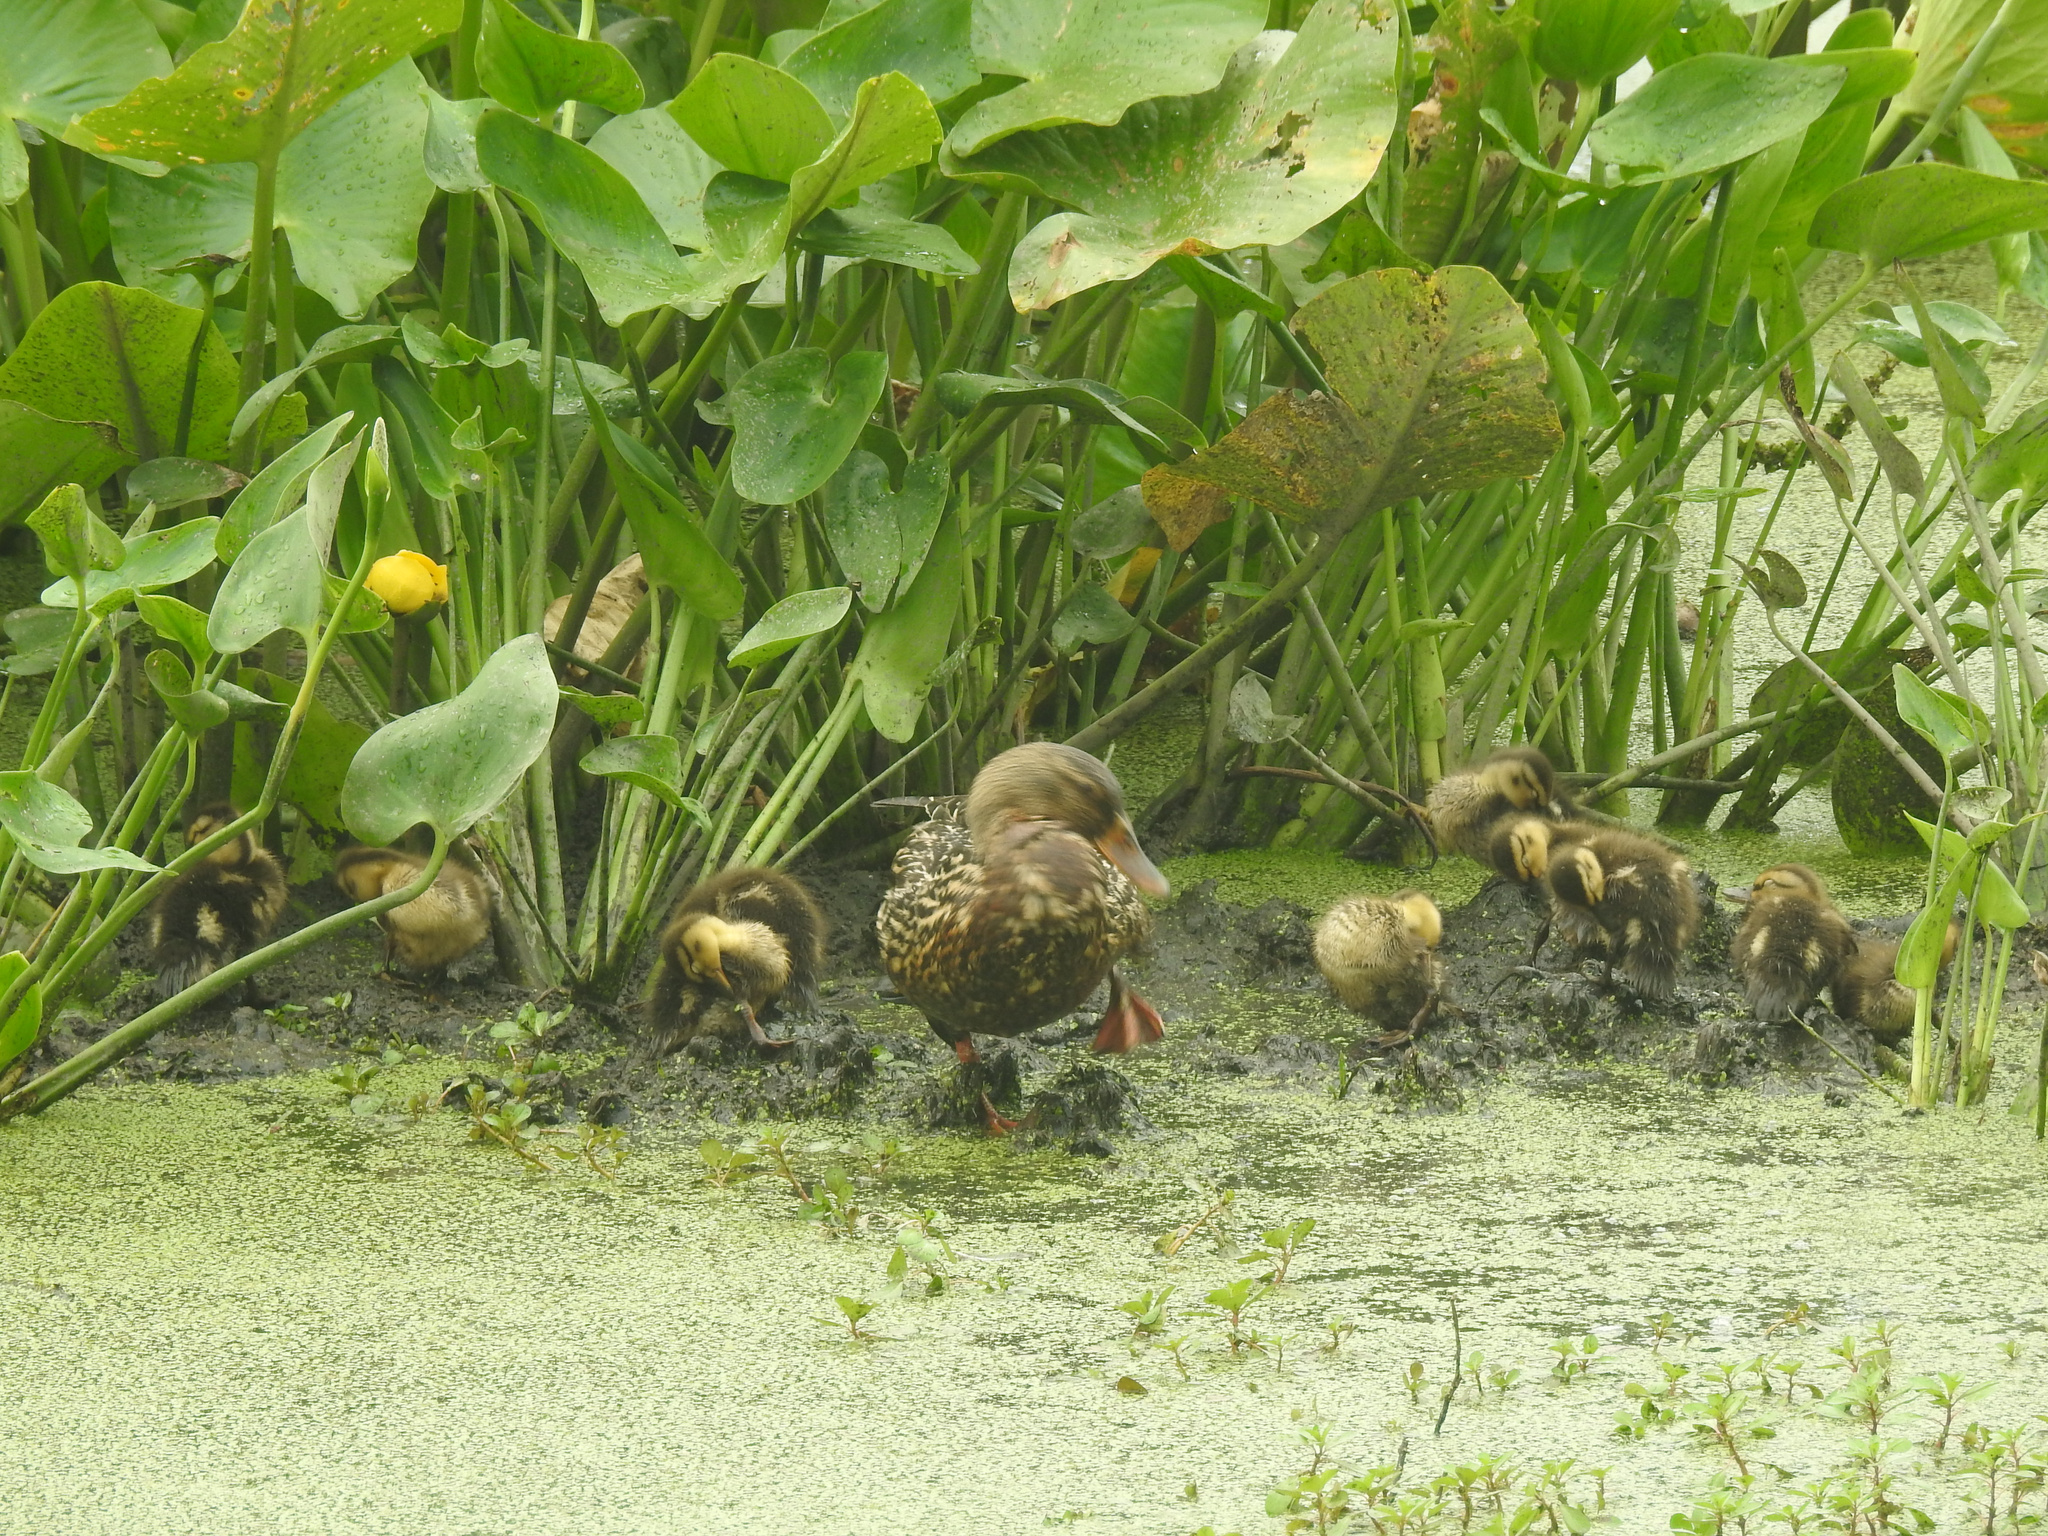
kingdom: Animalia
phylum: Chordata
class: Aves
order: Anseriformes
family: Anatidae
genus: Anas
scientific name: Anas platyrhynchos
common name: Mallard
